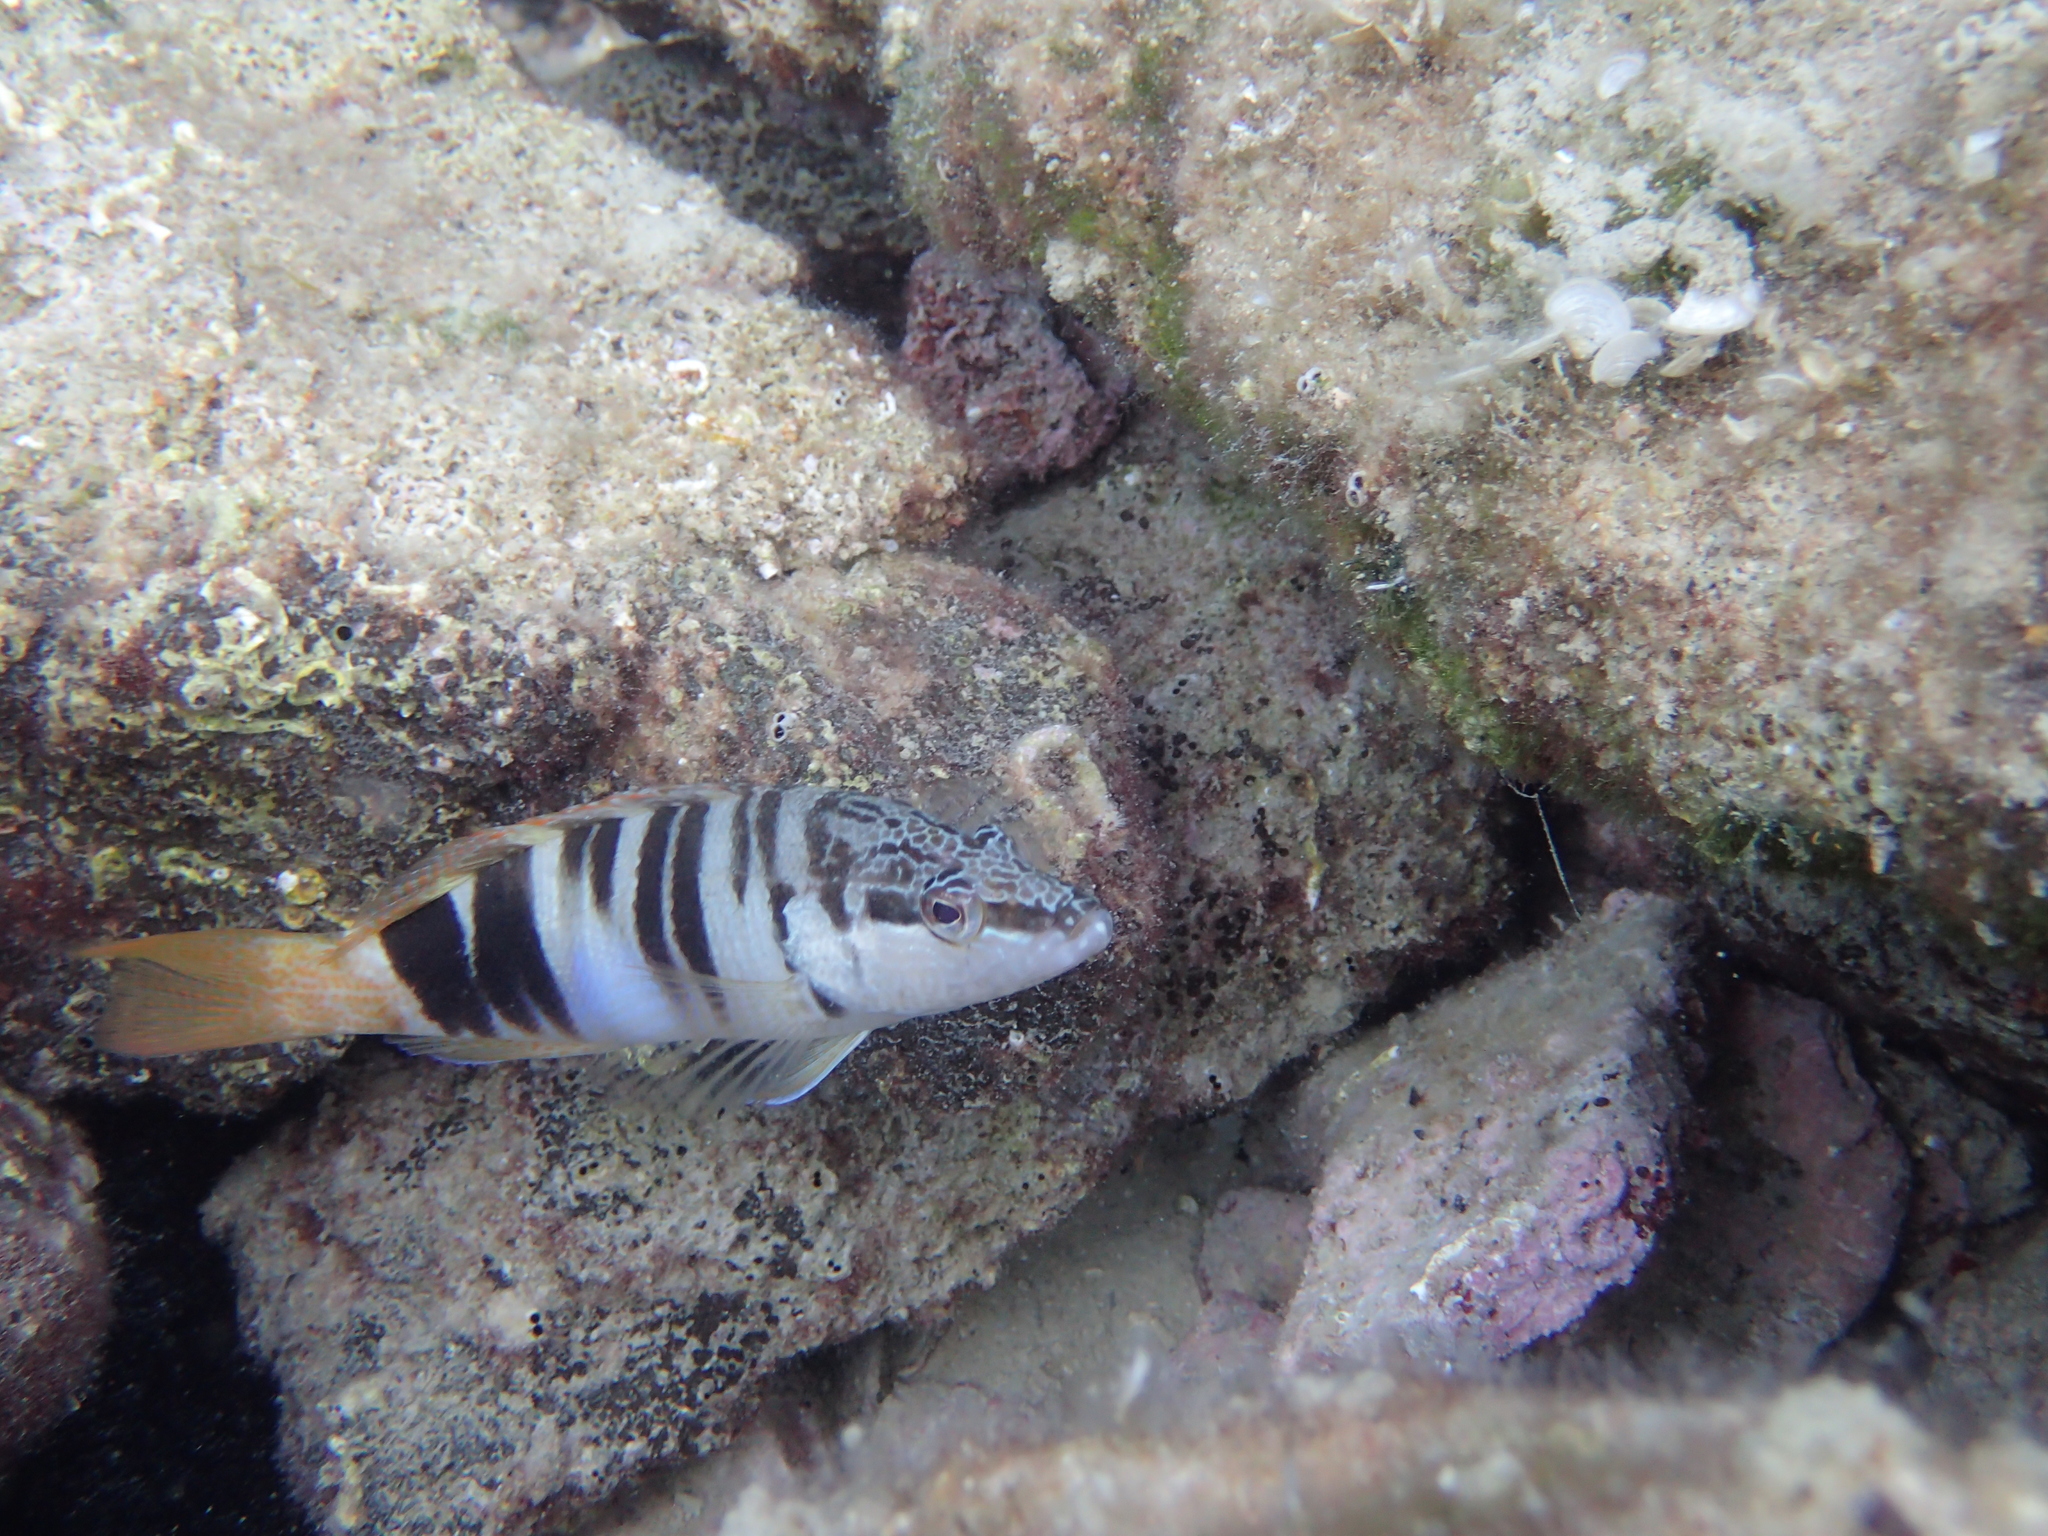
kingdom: Animalia
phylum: Chordata
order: Perciformes
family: Serranidae
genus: Serranus
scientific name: Serranus scriba
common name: Painted comber
